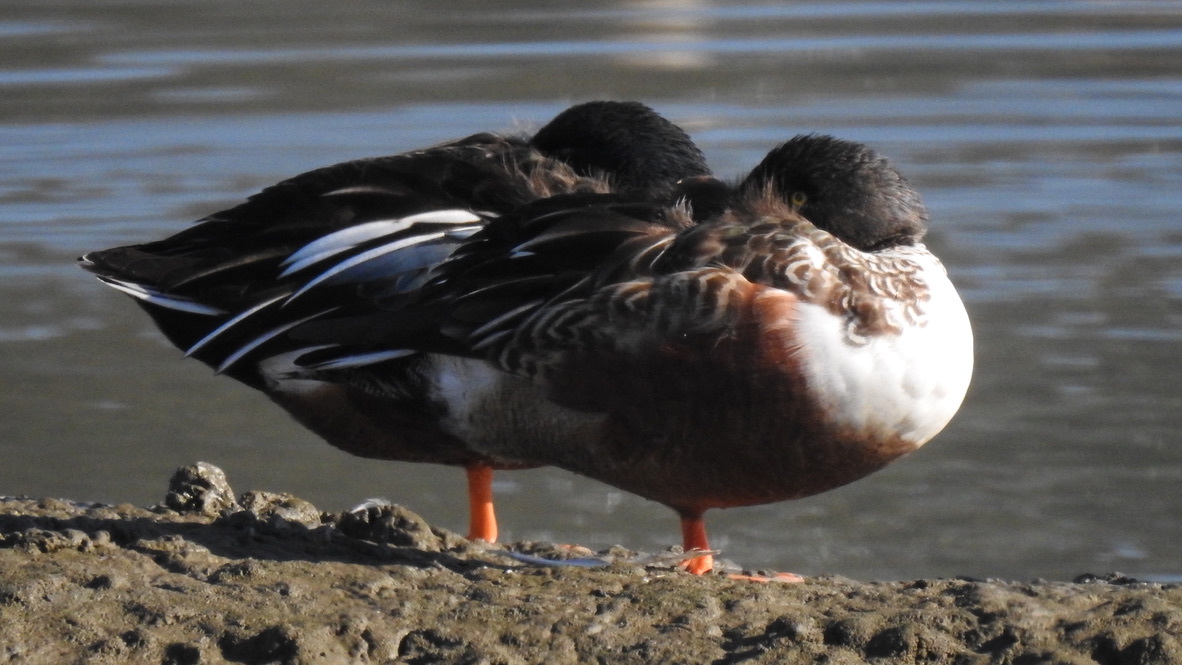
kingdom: Animalia
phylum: Chordata
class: Aves
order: Anseriformes
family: Anatidae
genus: Spatula
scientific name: Spatula clypeata
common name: Northern shoveler
